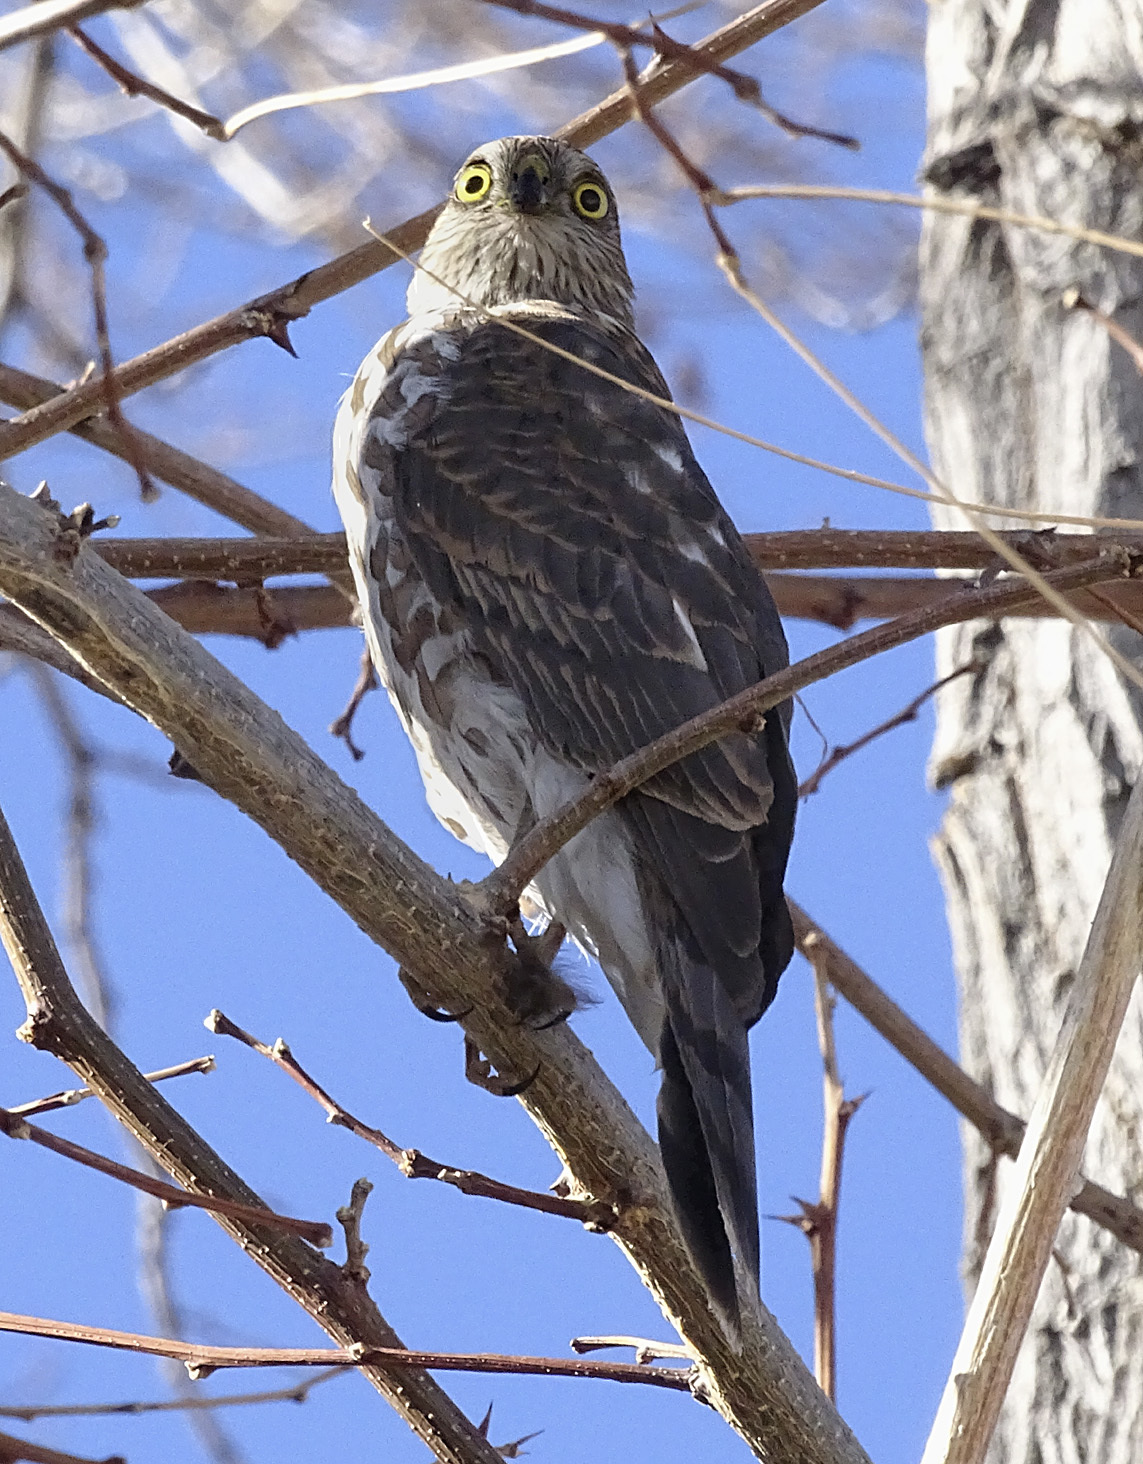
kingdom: Animalia
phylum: Chordata
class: Aves
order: Accipitriformes
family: Accipitridae
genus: Accipiter
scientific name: Accipiter striatus
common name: Sharp-shinned hawk
